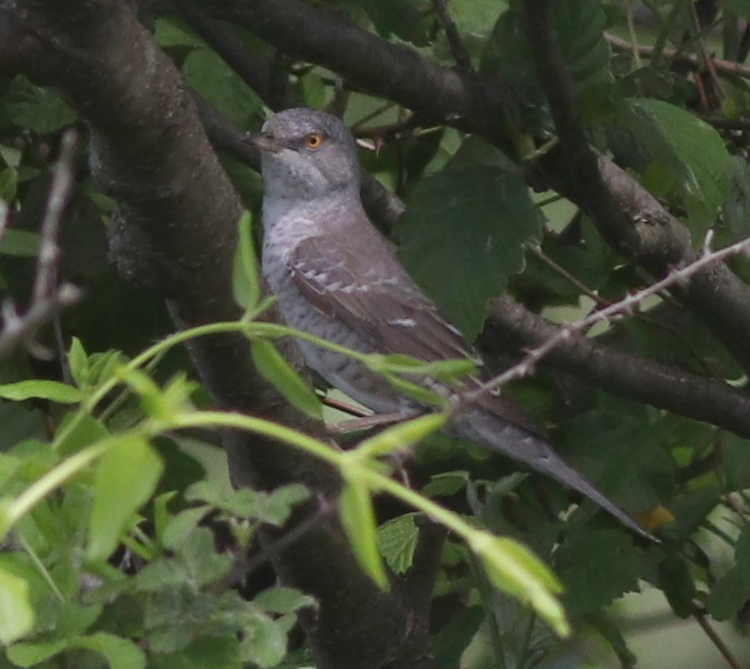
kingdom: Animalia
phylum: Chordata
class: Aves
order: Passeriformes
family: Sylviidae
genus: Sylvia
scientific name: Sylvia nisoria
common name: Barred warbler
